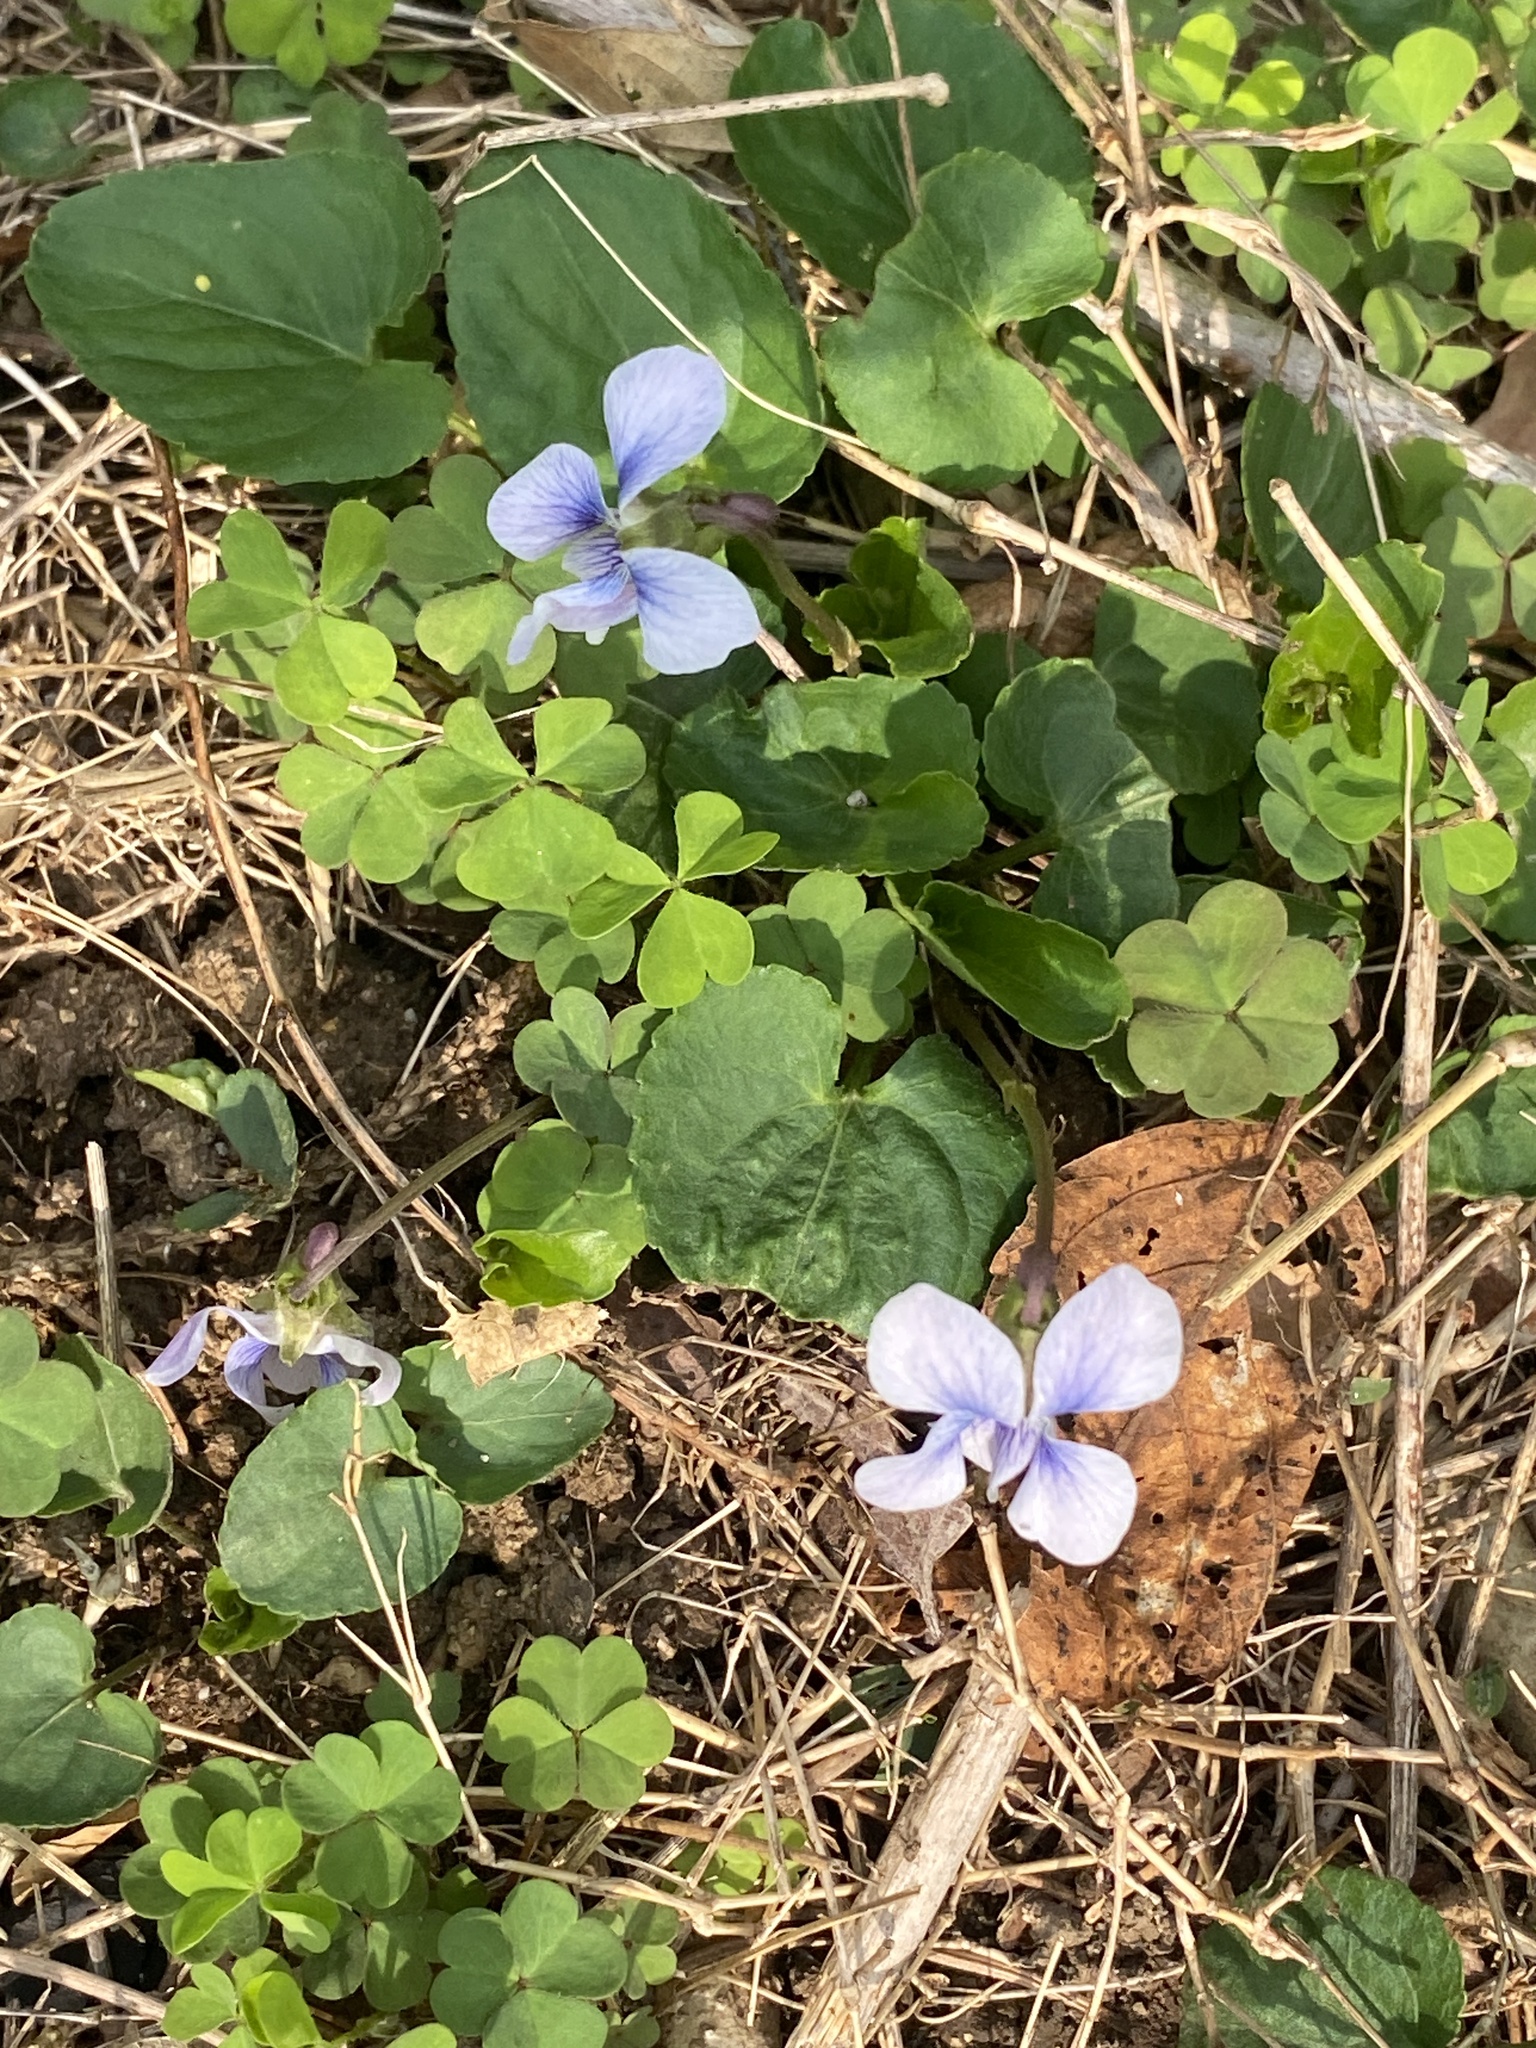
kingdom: Plantae
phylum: Tracheophyta
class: Magnoliopsida
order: Malpighiales
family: Violaceae
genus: Viola
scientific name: Viola sororia
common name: Dooryard violet
